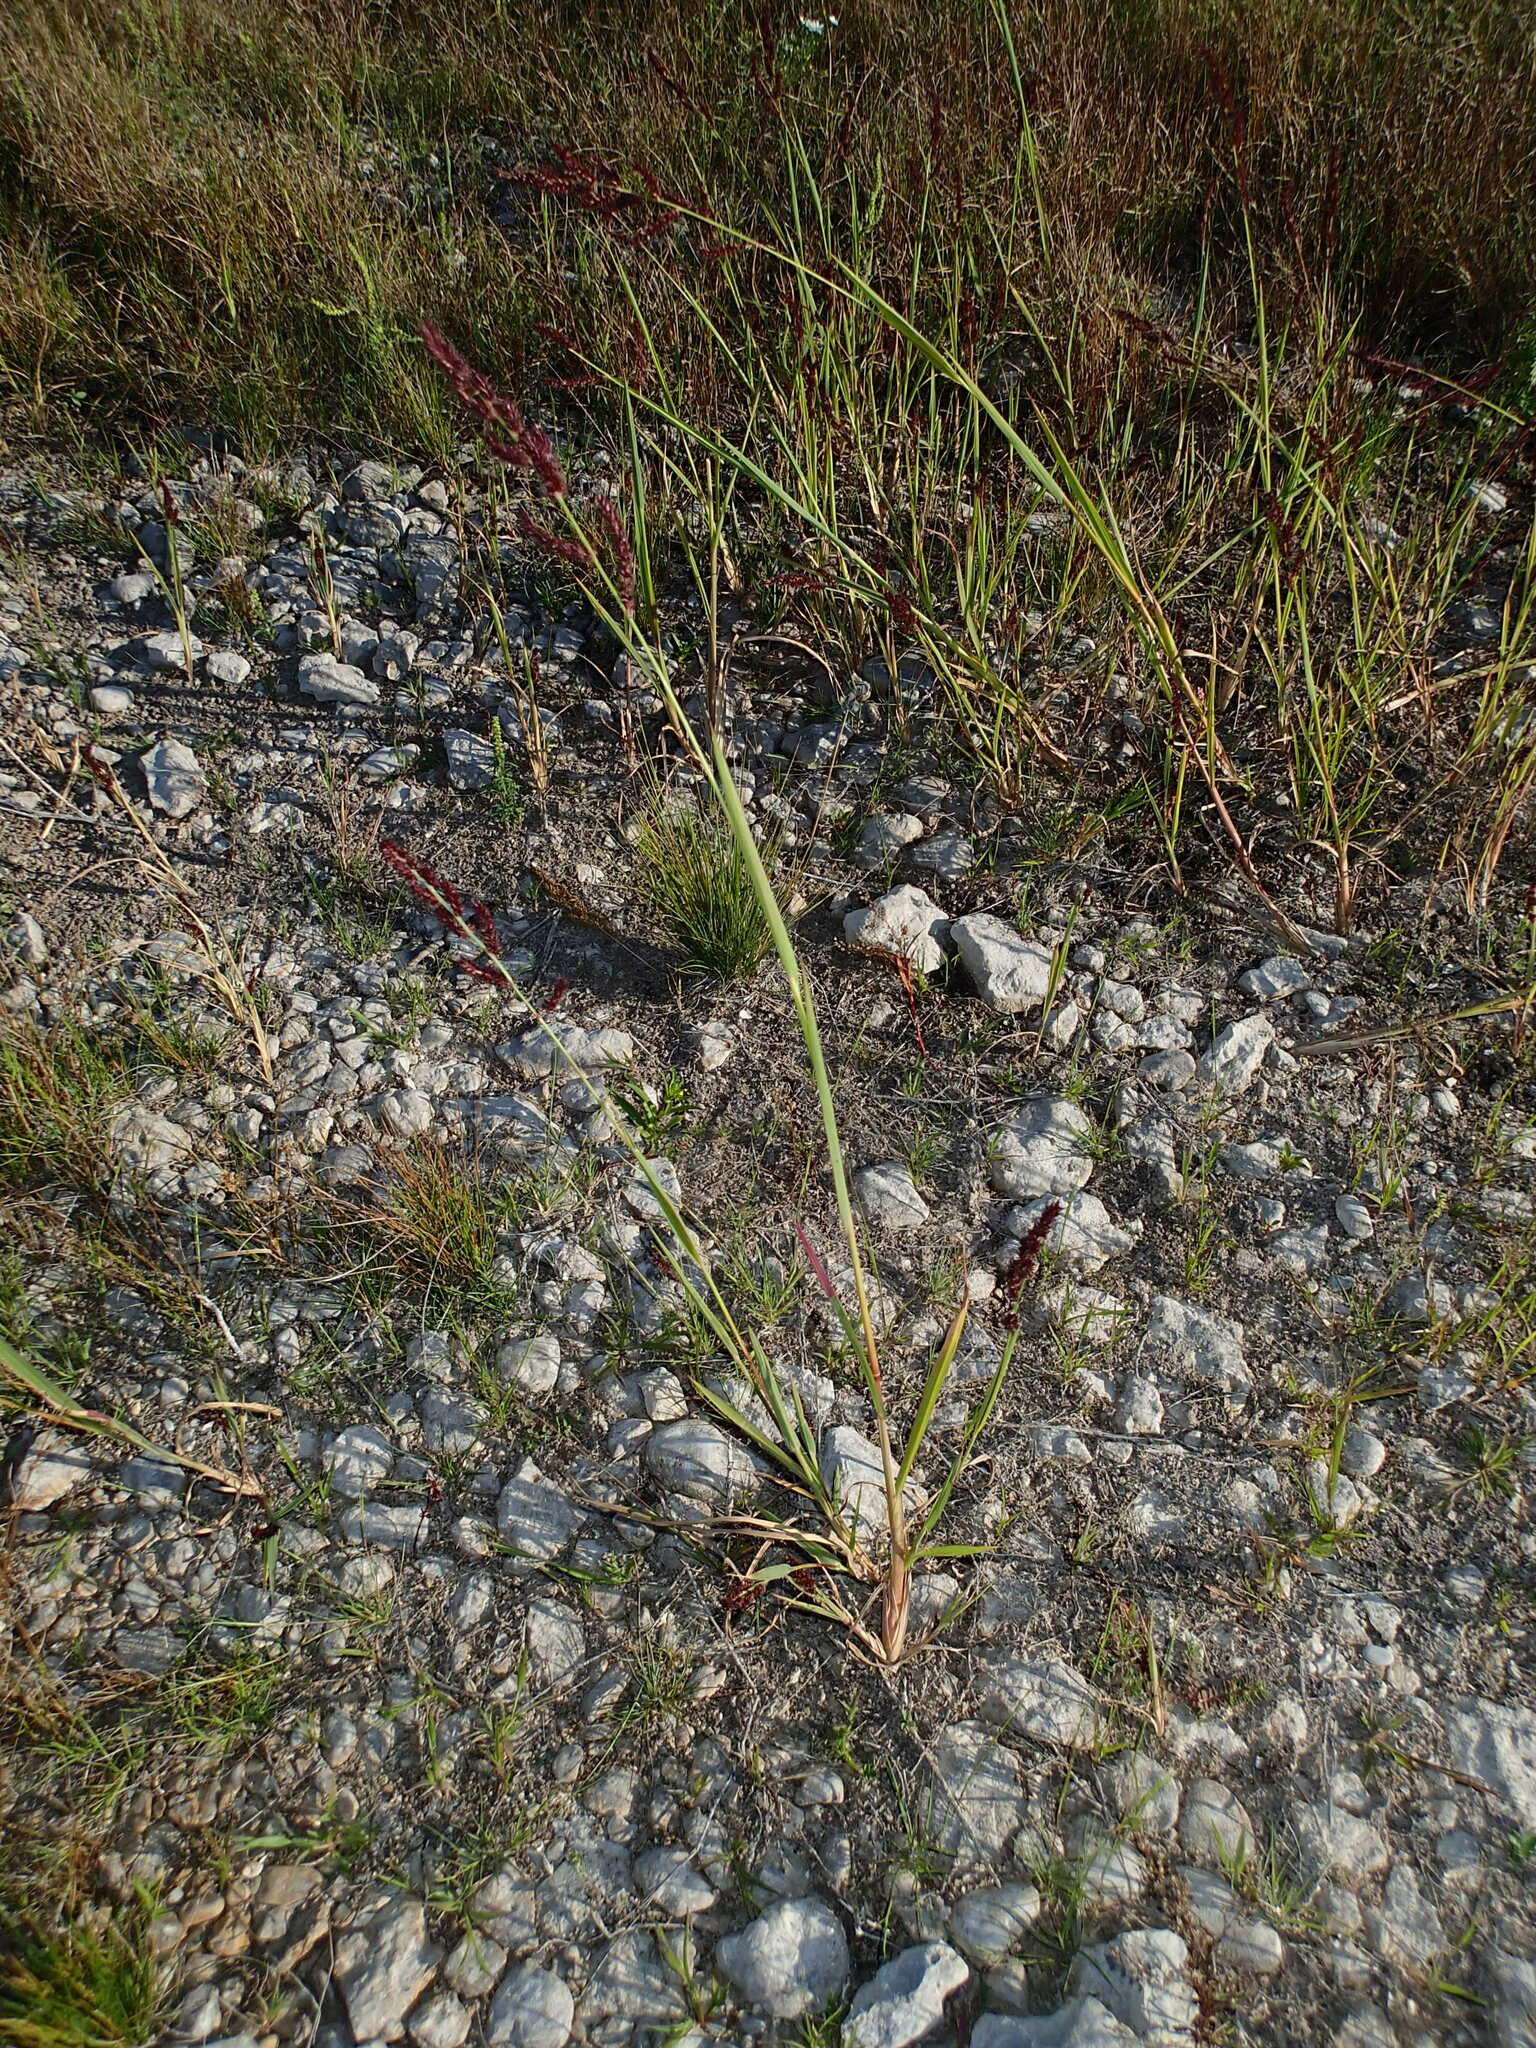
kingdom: Plantae
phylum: Tracheophyta
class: Liliopsida
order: Poales
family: Poaceae
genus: Echinochloa
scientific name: Echinochloa muricata
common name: American barnyard grass
